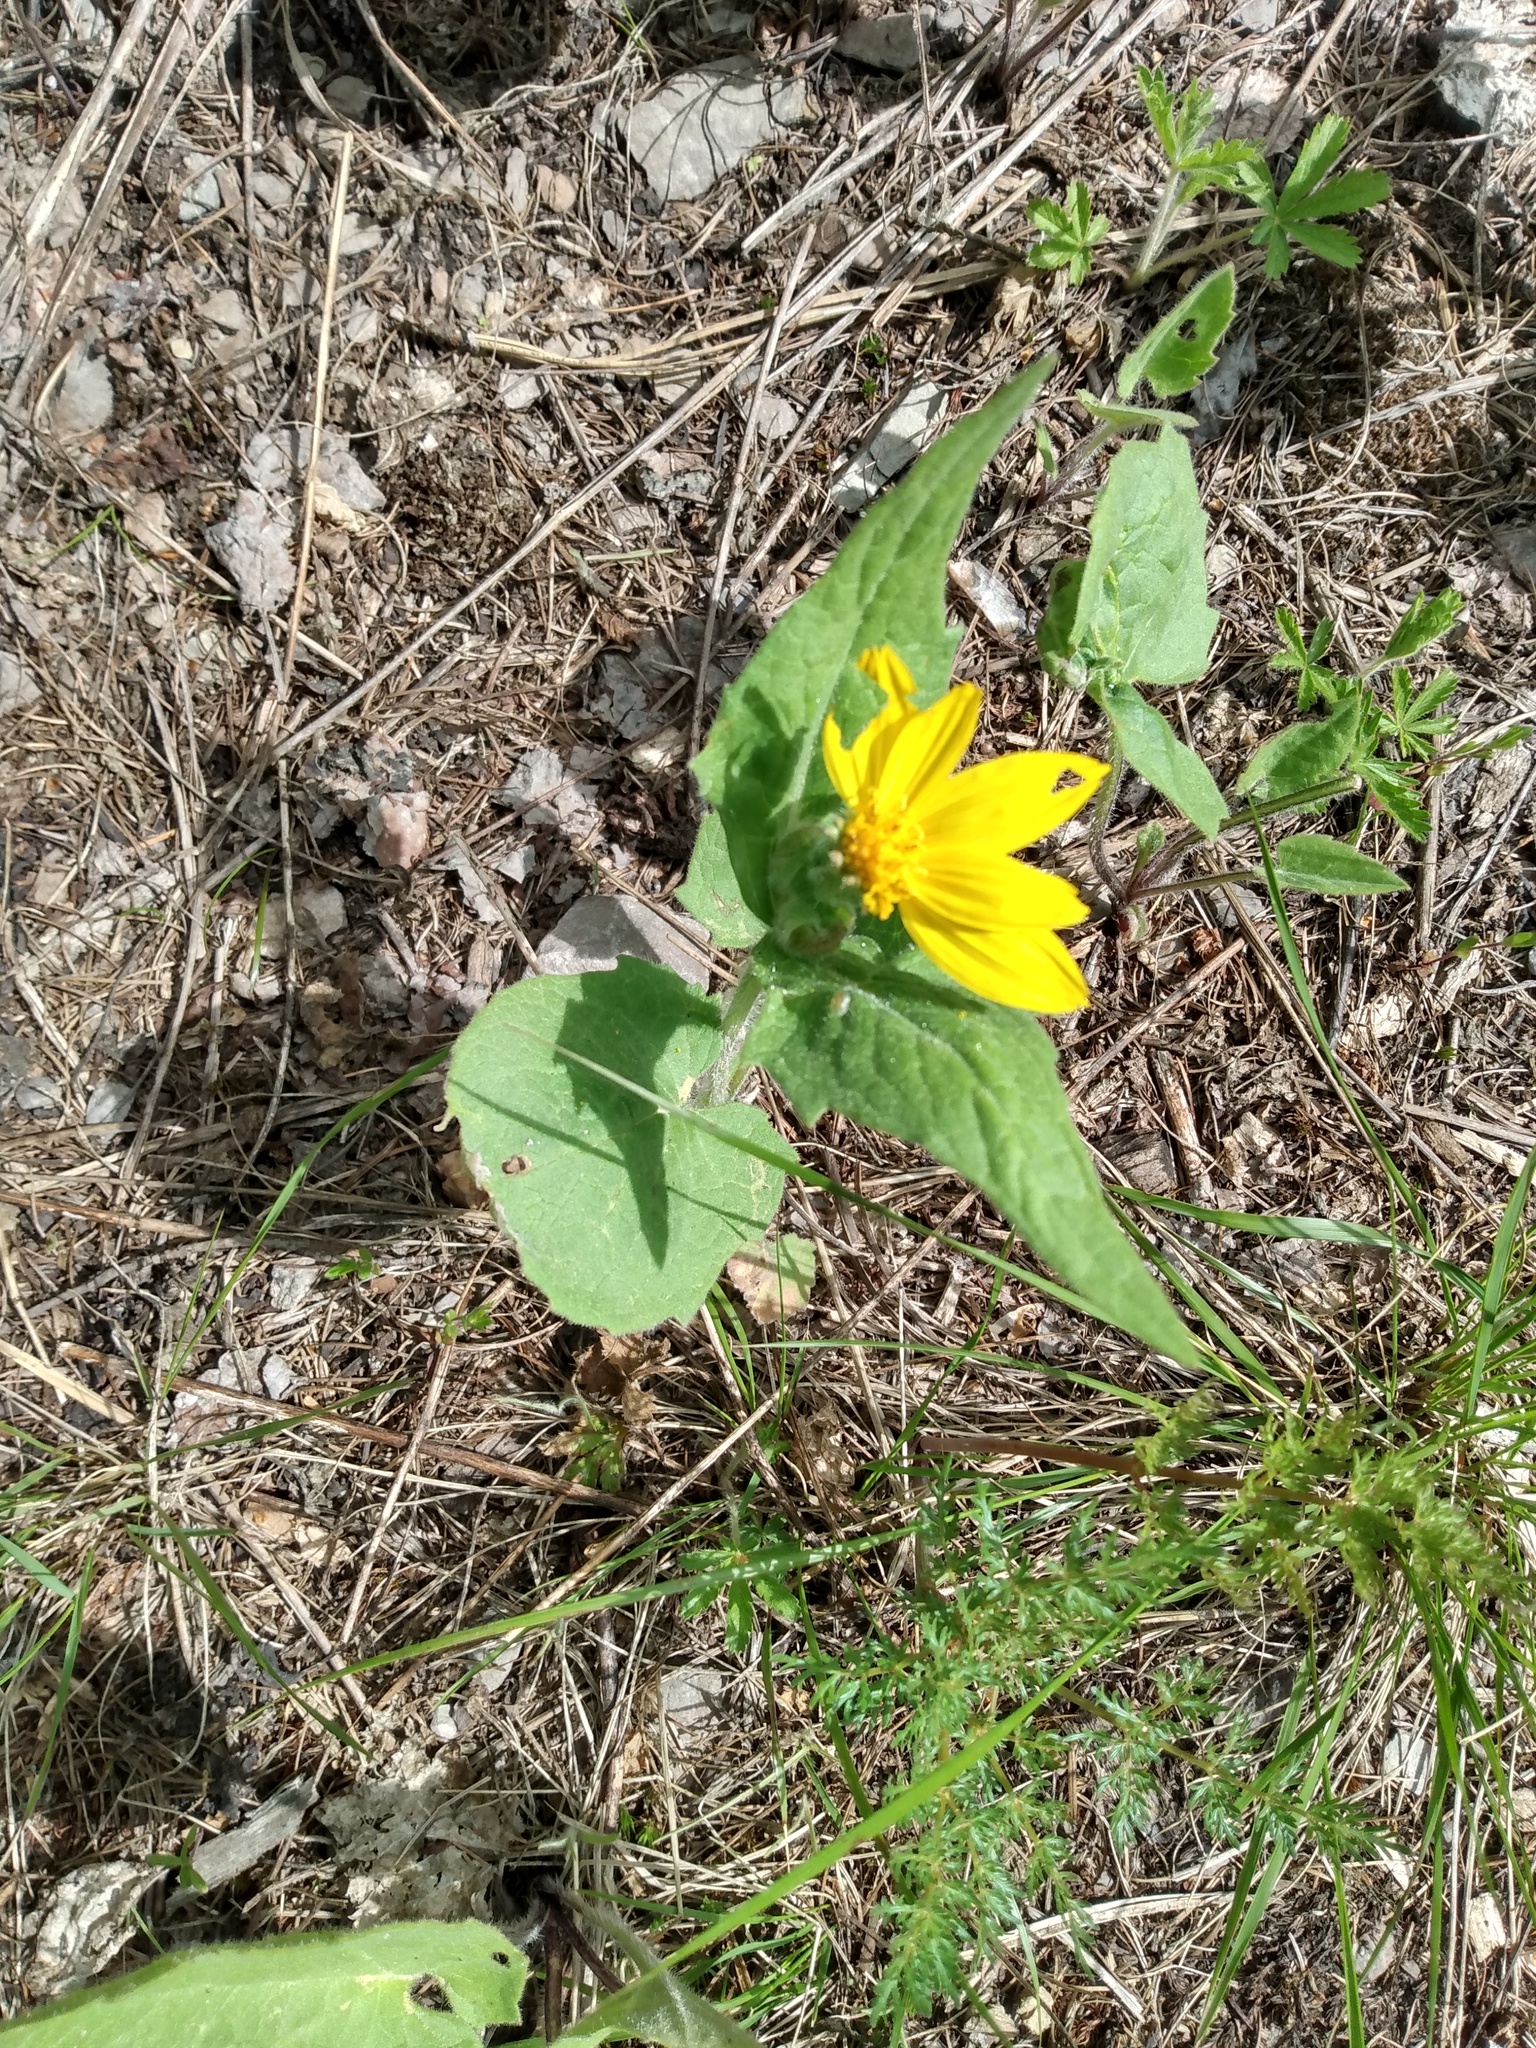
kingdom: Plantae
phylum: Tracheophyta
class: Magnoliopsida
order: Asterales
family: Asteraceae
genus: Arnica
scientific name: Arnica cordifolia
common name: Heart-leaf arnica
